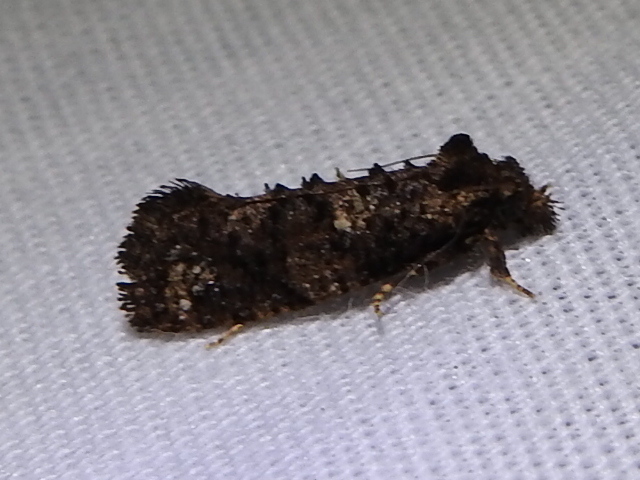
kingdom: Animalia
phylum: Arthropoda
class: Insecta
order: Lepidoptera
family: Tineidae
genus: Acrolophus
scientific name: Acrolophus cressoni
